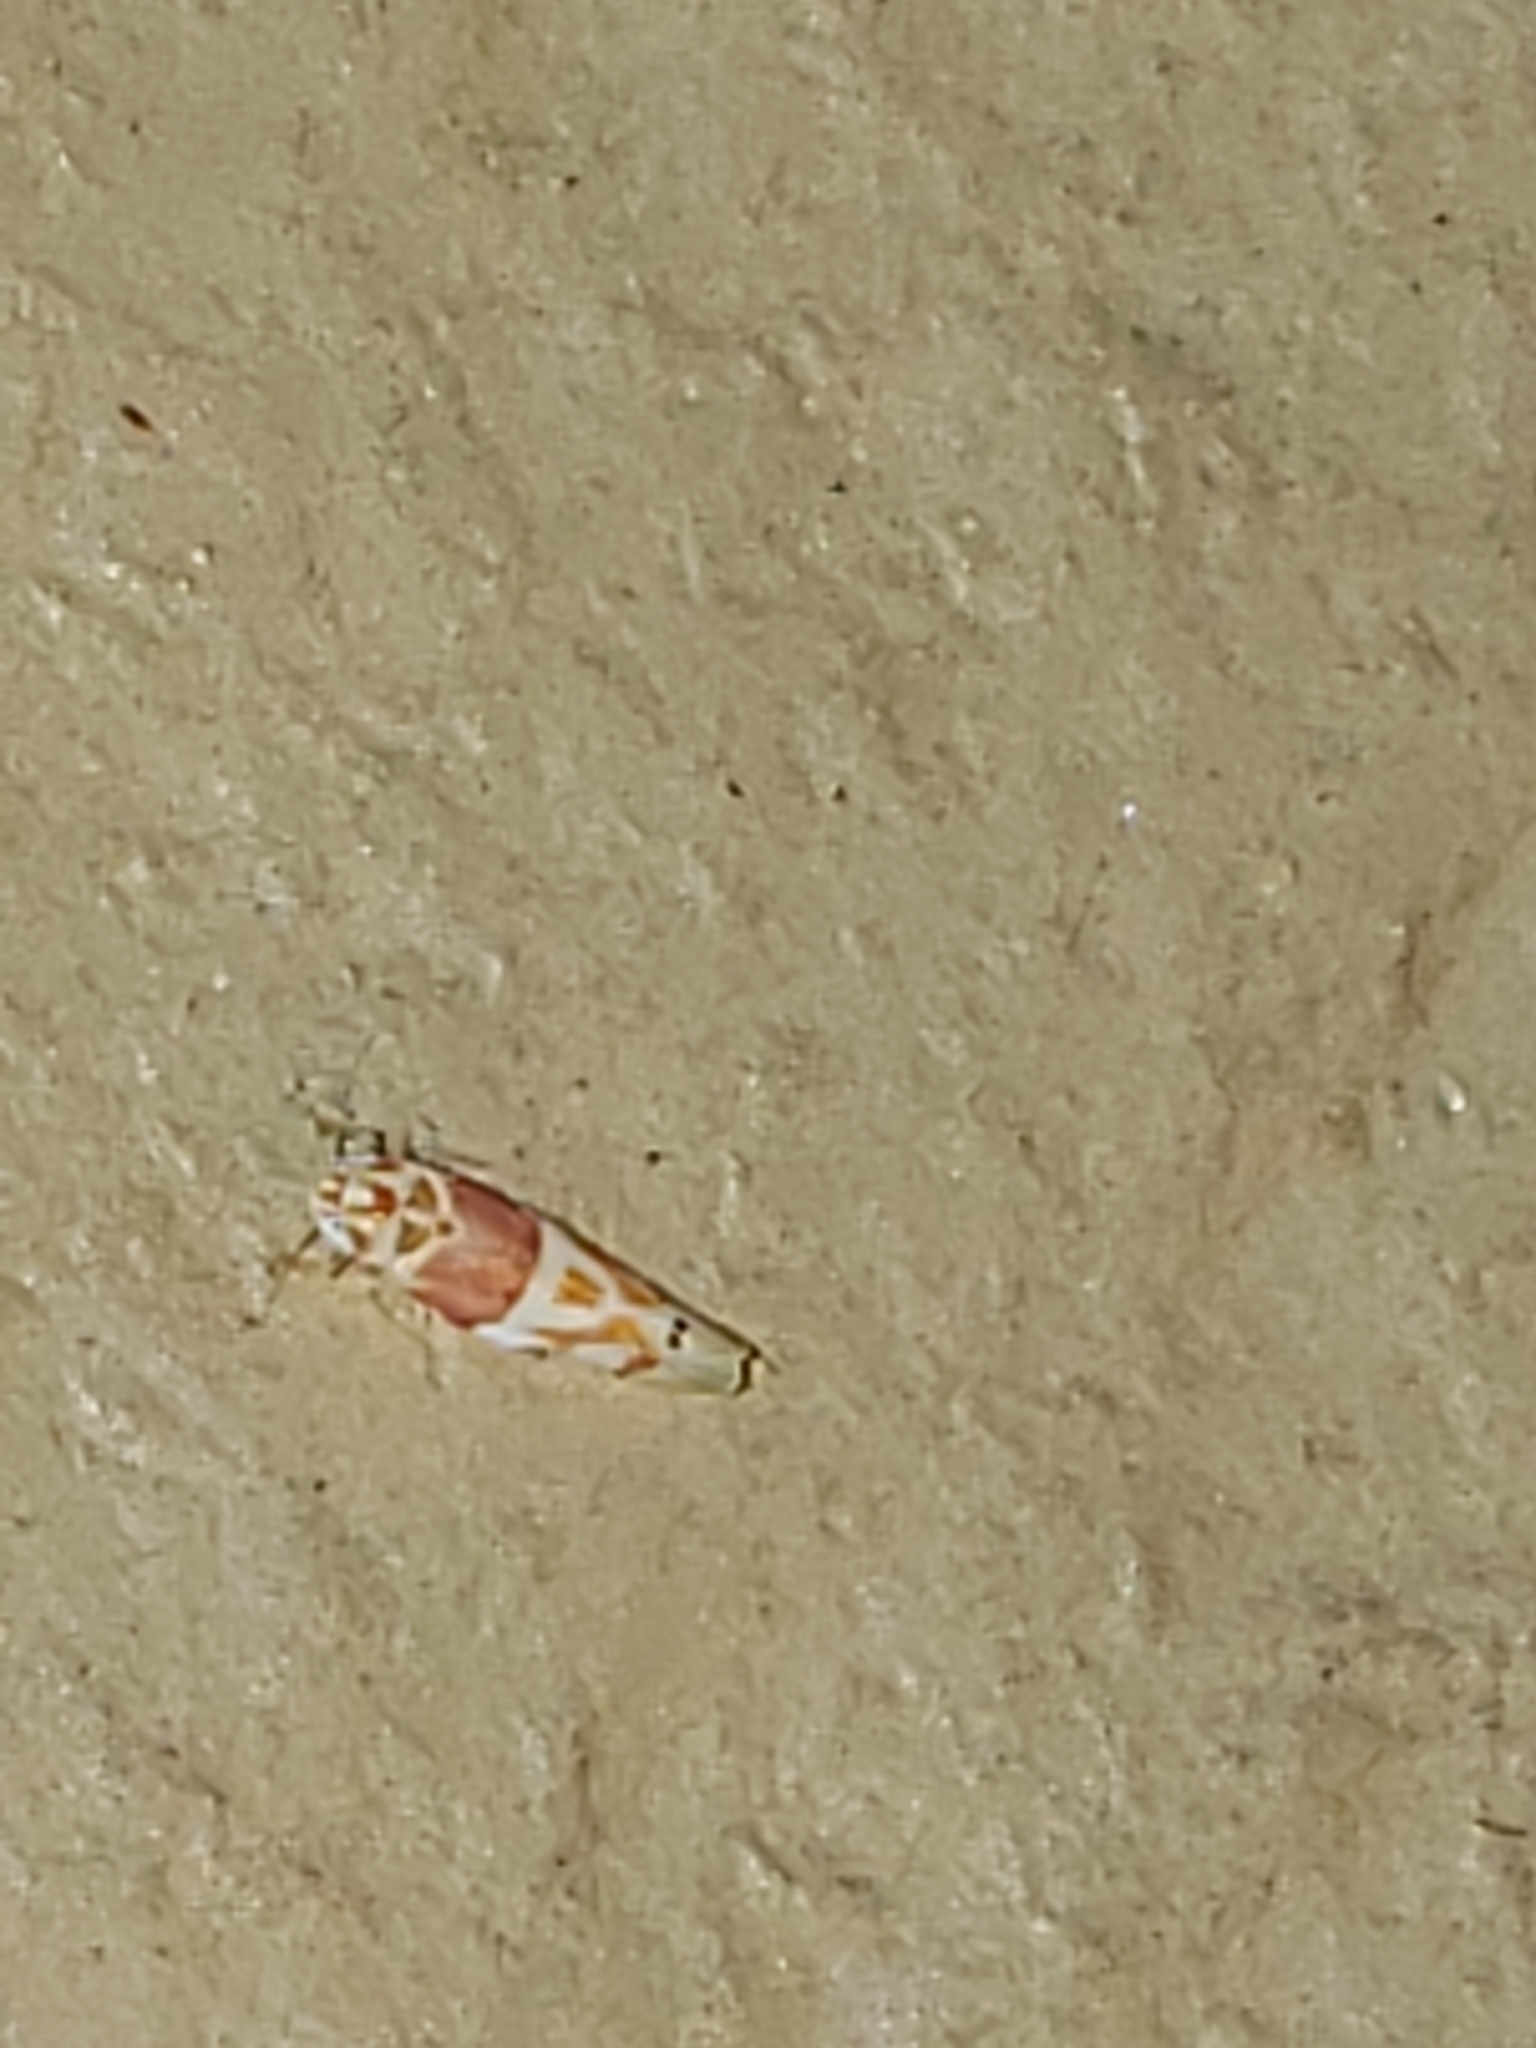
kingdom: Animalia
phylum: Arthropoda
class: Insecta
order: Hemiptera
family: Cicadellidae
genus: Eratoneura
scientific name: Eratoneura osborni
